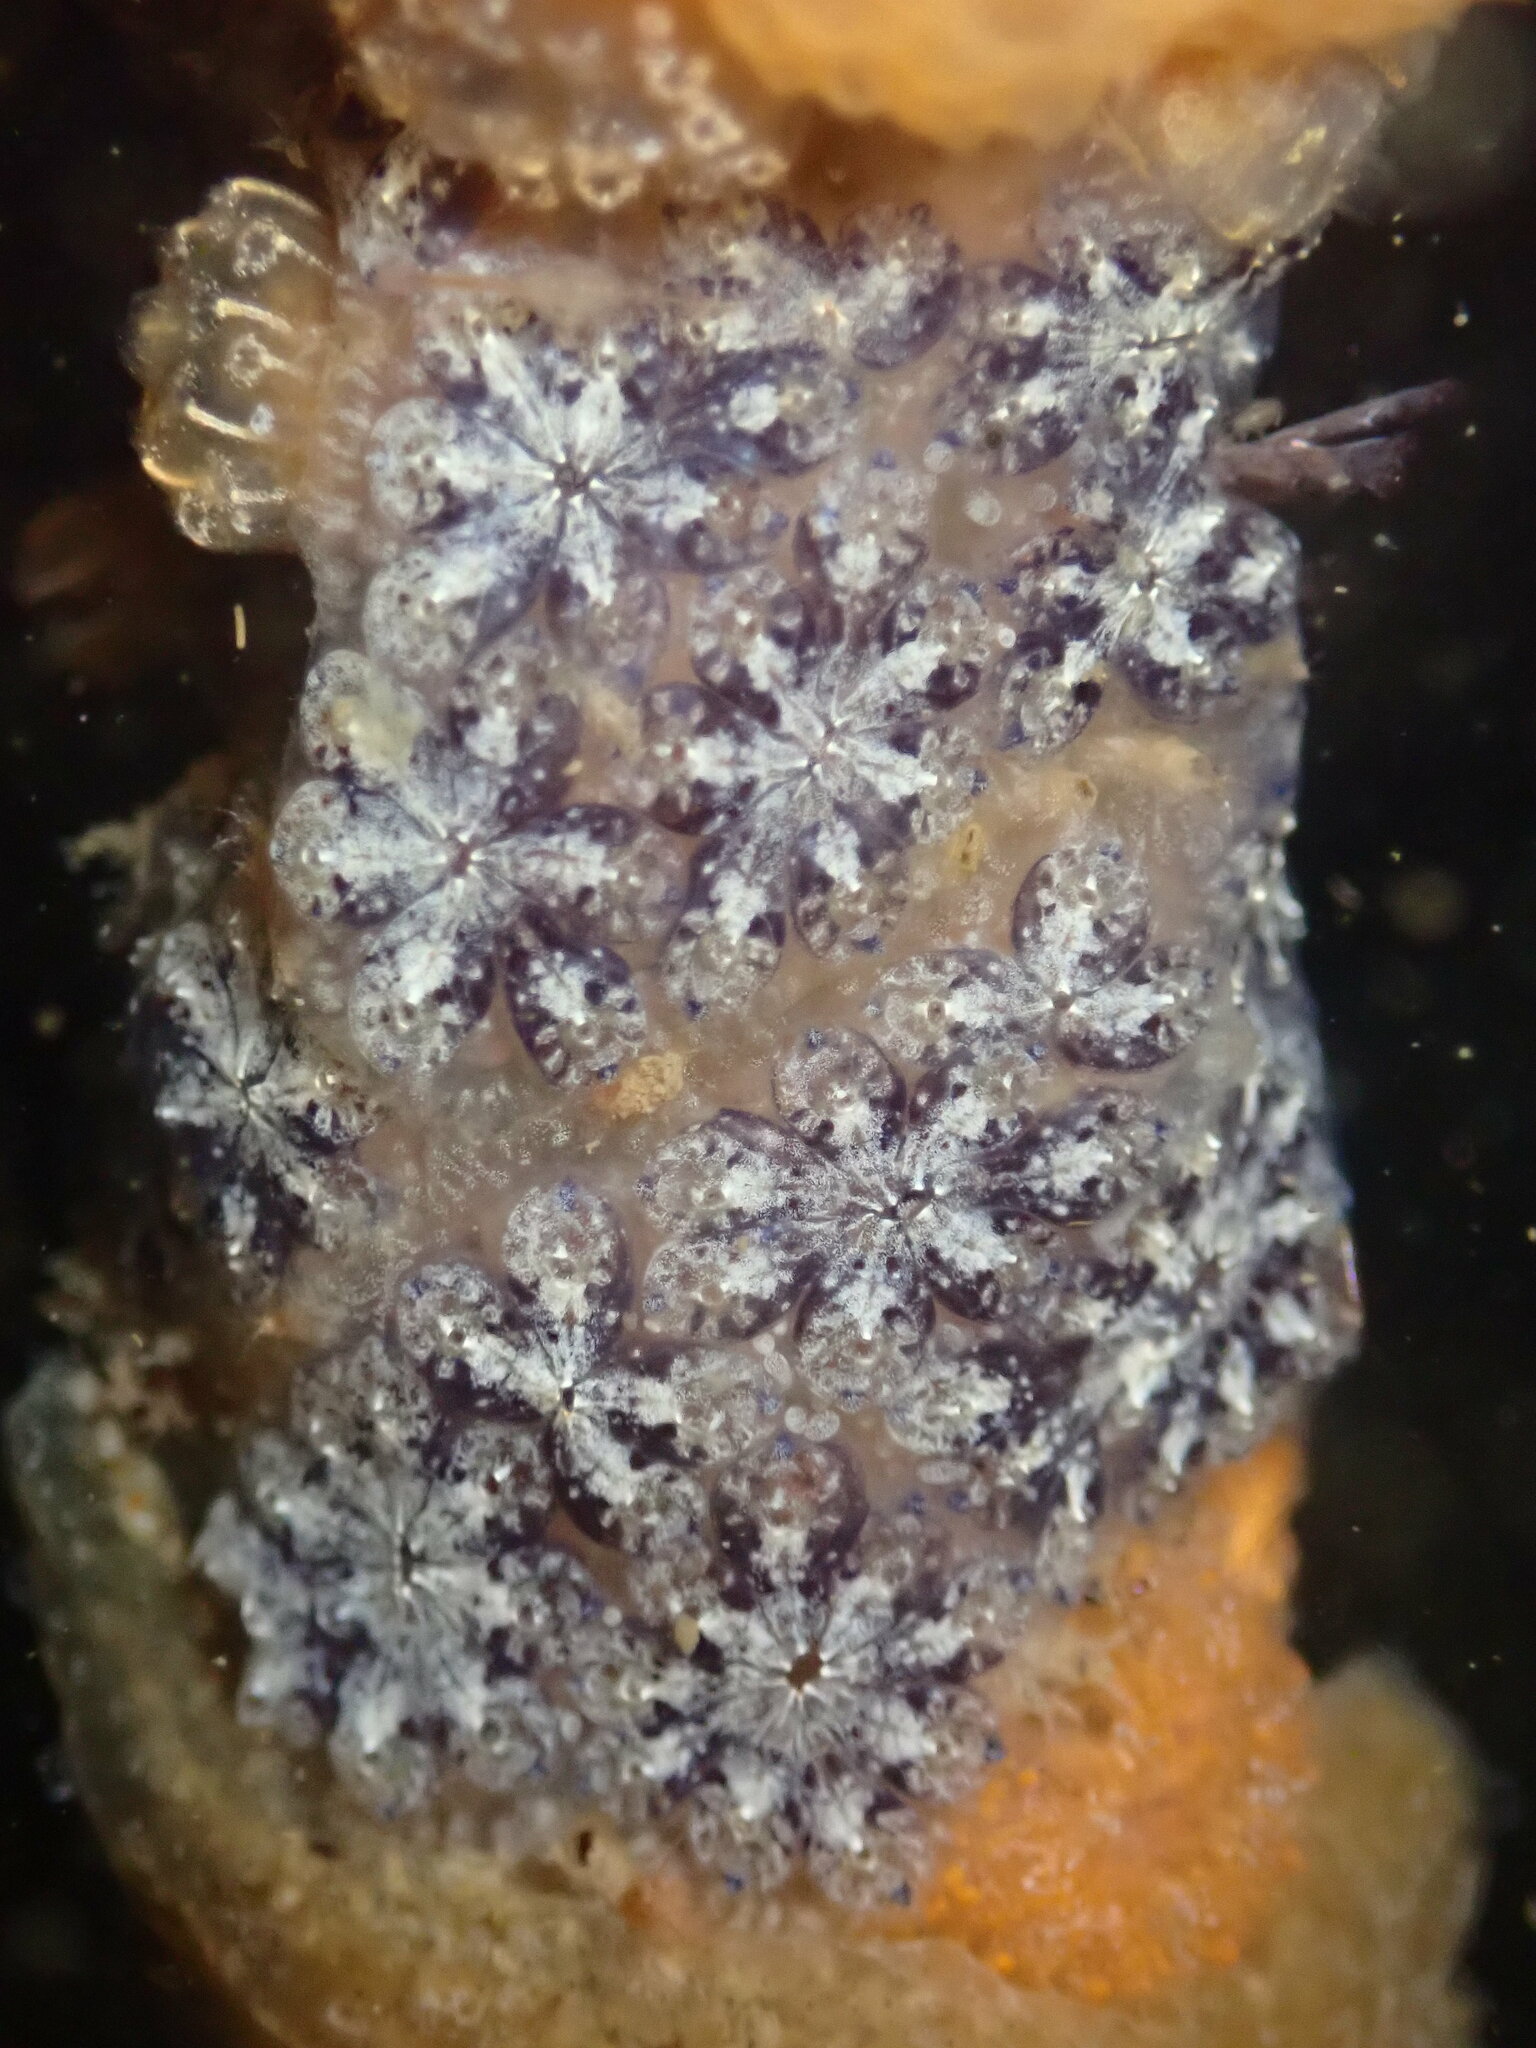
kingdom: Animalia
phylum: Chordata
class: Ascidiacea
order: Stolidobranchia
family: Styelidae
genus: Botryllus
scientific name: Botryllus schlosseri
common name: Golden star tunicate
